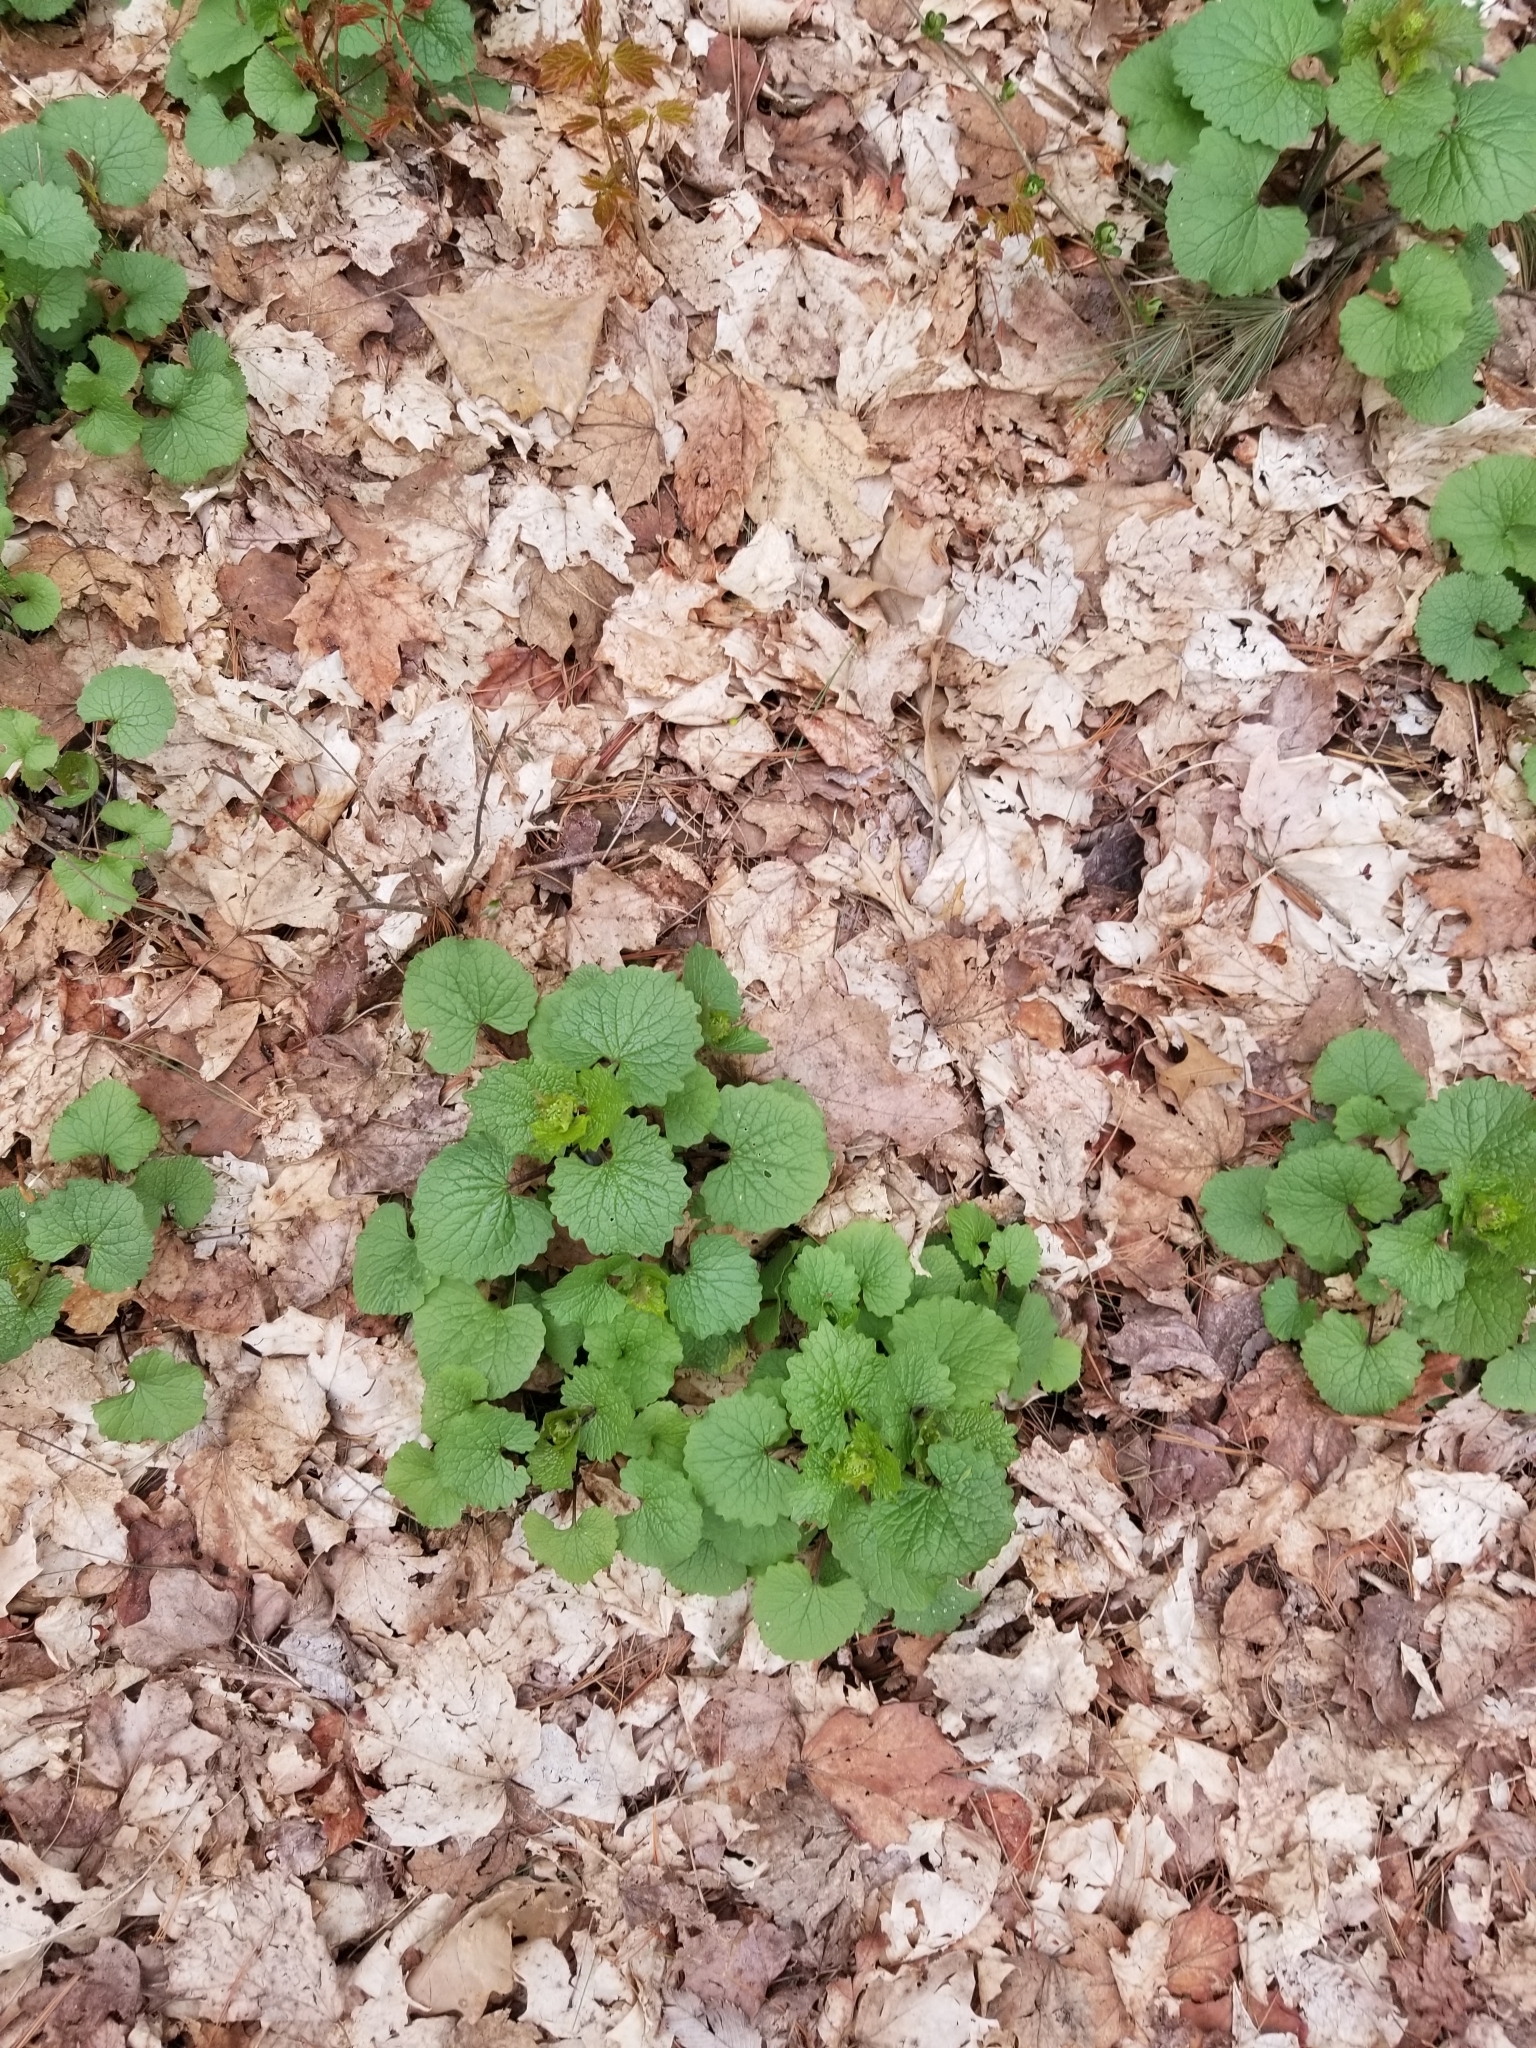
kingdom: Plantae
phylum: Tracheophyta
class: Magnoliopsida
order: Brassicales
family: Brassicaceae
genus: Alliaria
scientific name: Alliaria petiolata
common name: Garlic mustard
